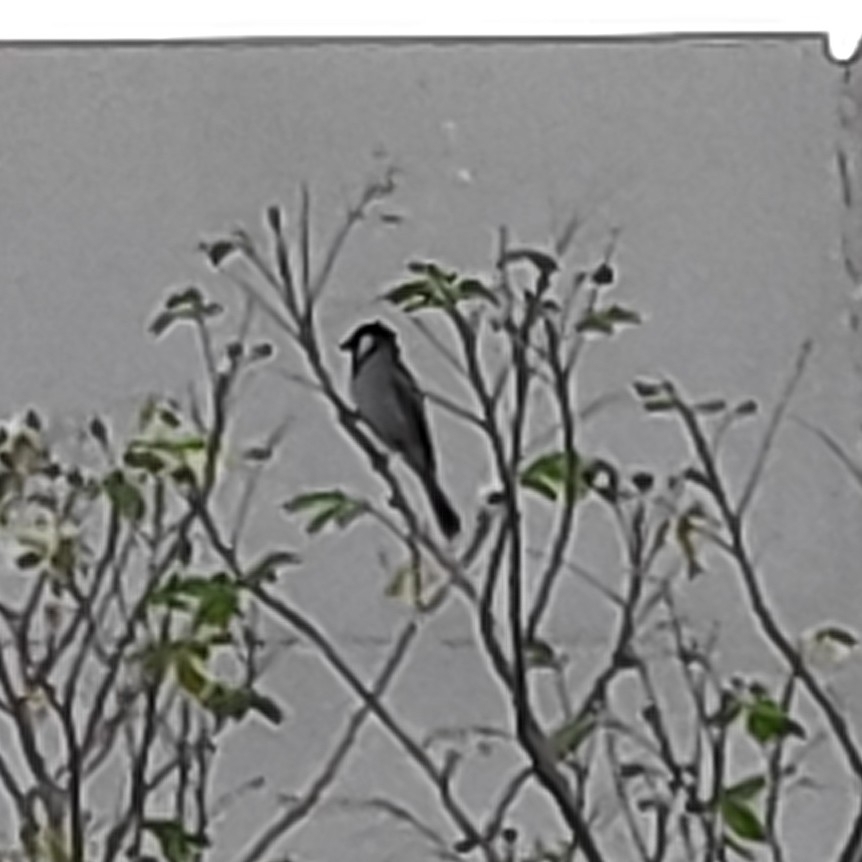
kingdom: Animalia
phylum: Chordata
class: Aves
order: Passeriformes
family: Pycnonotidae
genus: Pycnonotus
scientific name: Pycnonotus leucotis
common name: White-eared bulbul
